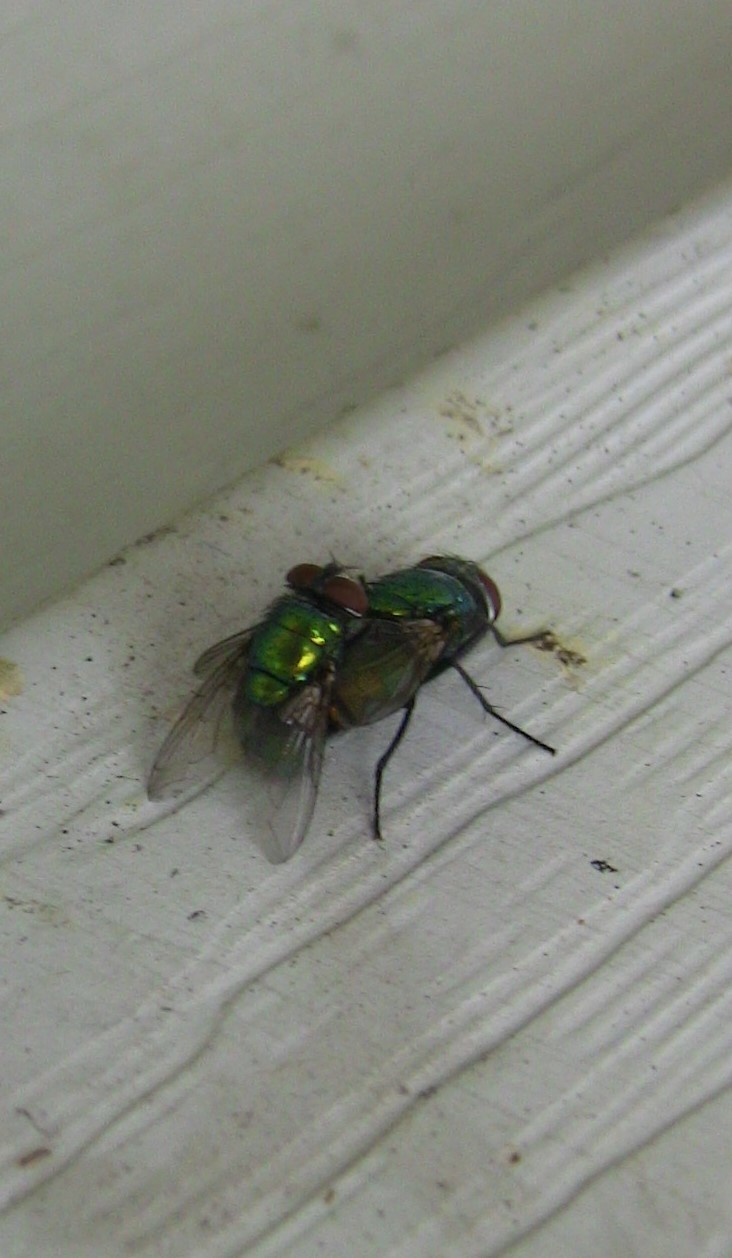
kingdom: Animalia
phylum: Arthropoda
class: Insecta
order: Diptera
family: Calliphoridae
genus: Lucilia
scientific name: Lucilia sericata
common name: Blow fly
